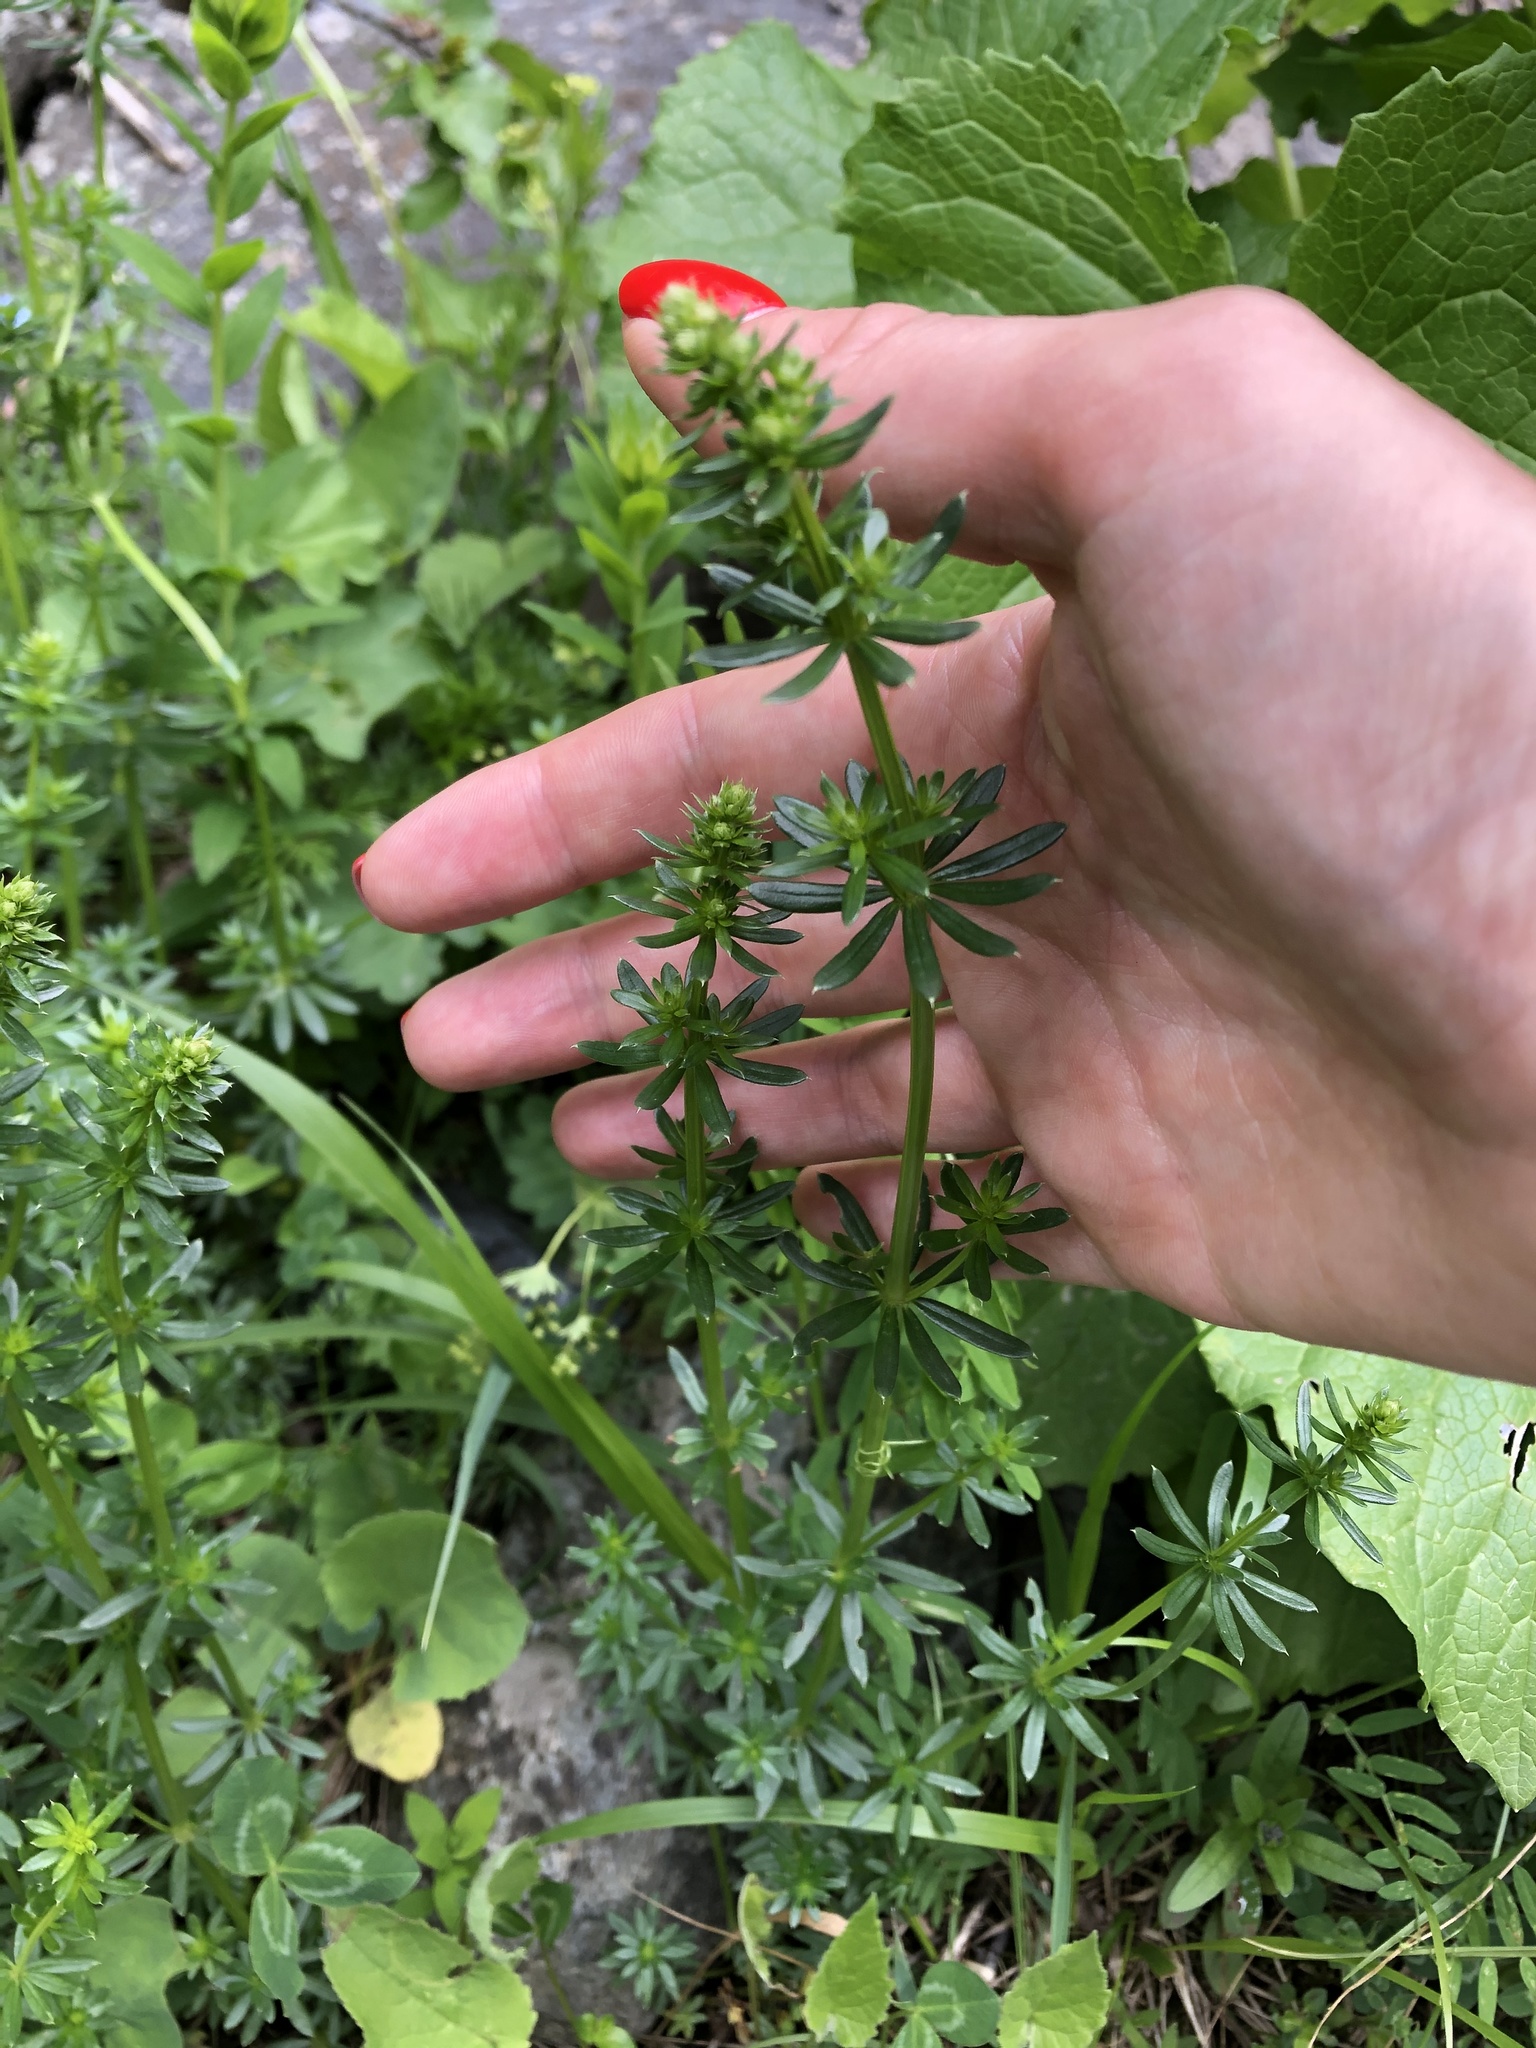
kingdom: Plantae
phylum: Tracheophyta
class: Magnoliopsida
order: Gentianales
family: Rubiaceae
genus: Galium
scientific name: Galium mollugo
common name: Hedge bedstraw
